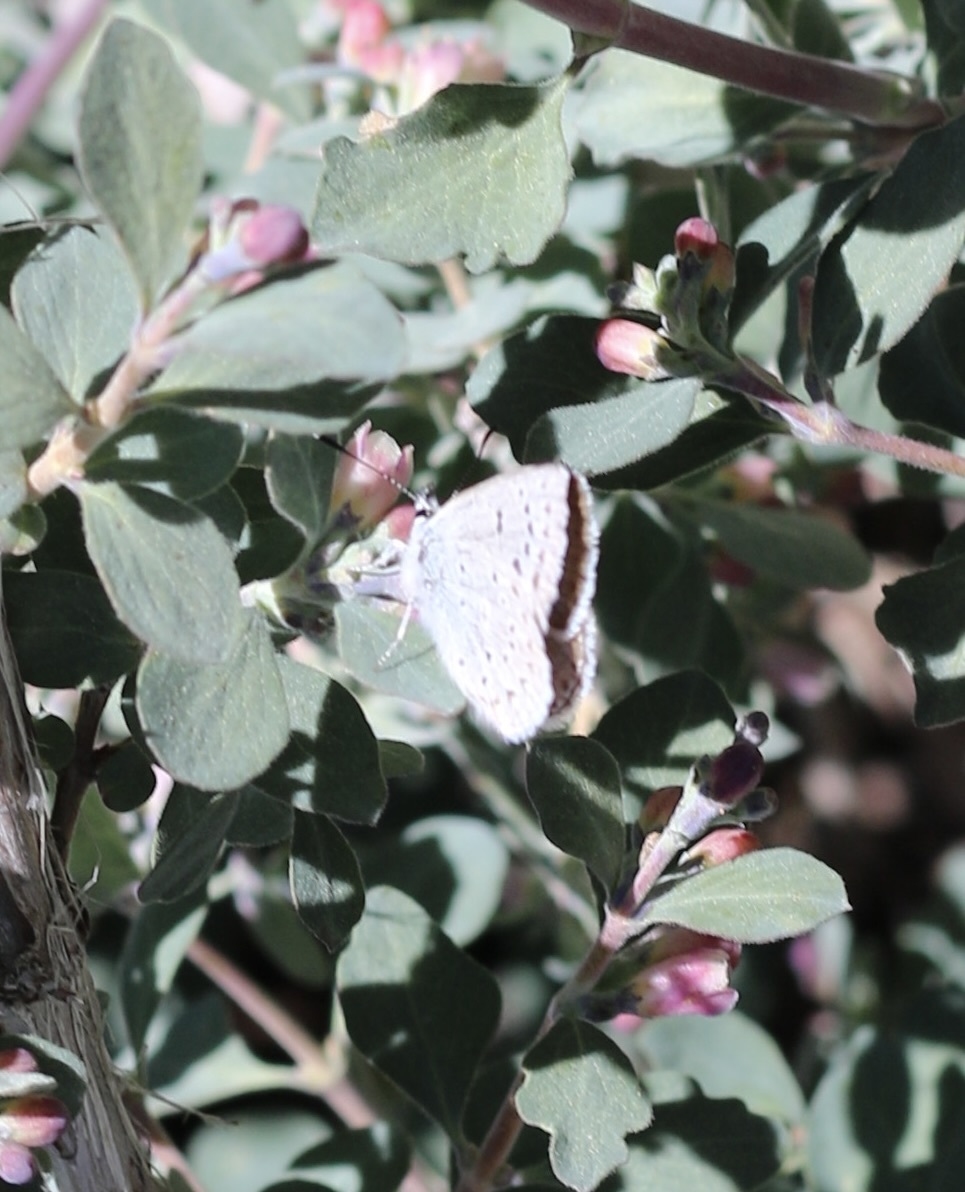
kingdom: Animalia
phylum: Arthropoda
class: Insecta
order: Lepidoptera
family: Lycaenidae
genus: Icaricia
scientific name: Icaricia icarioides
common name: Boisduval's blue
